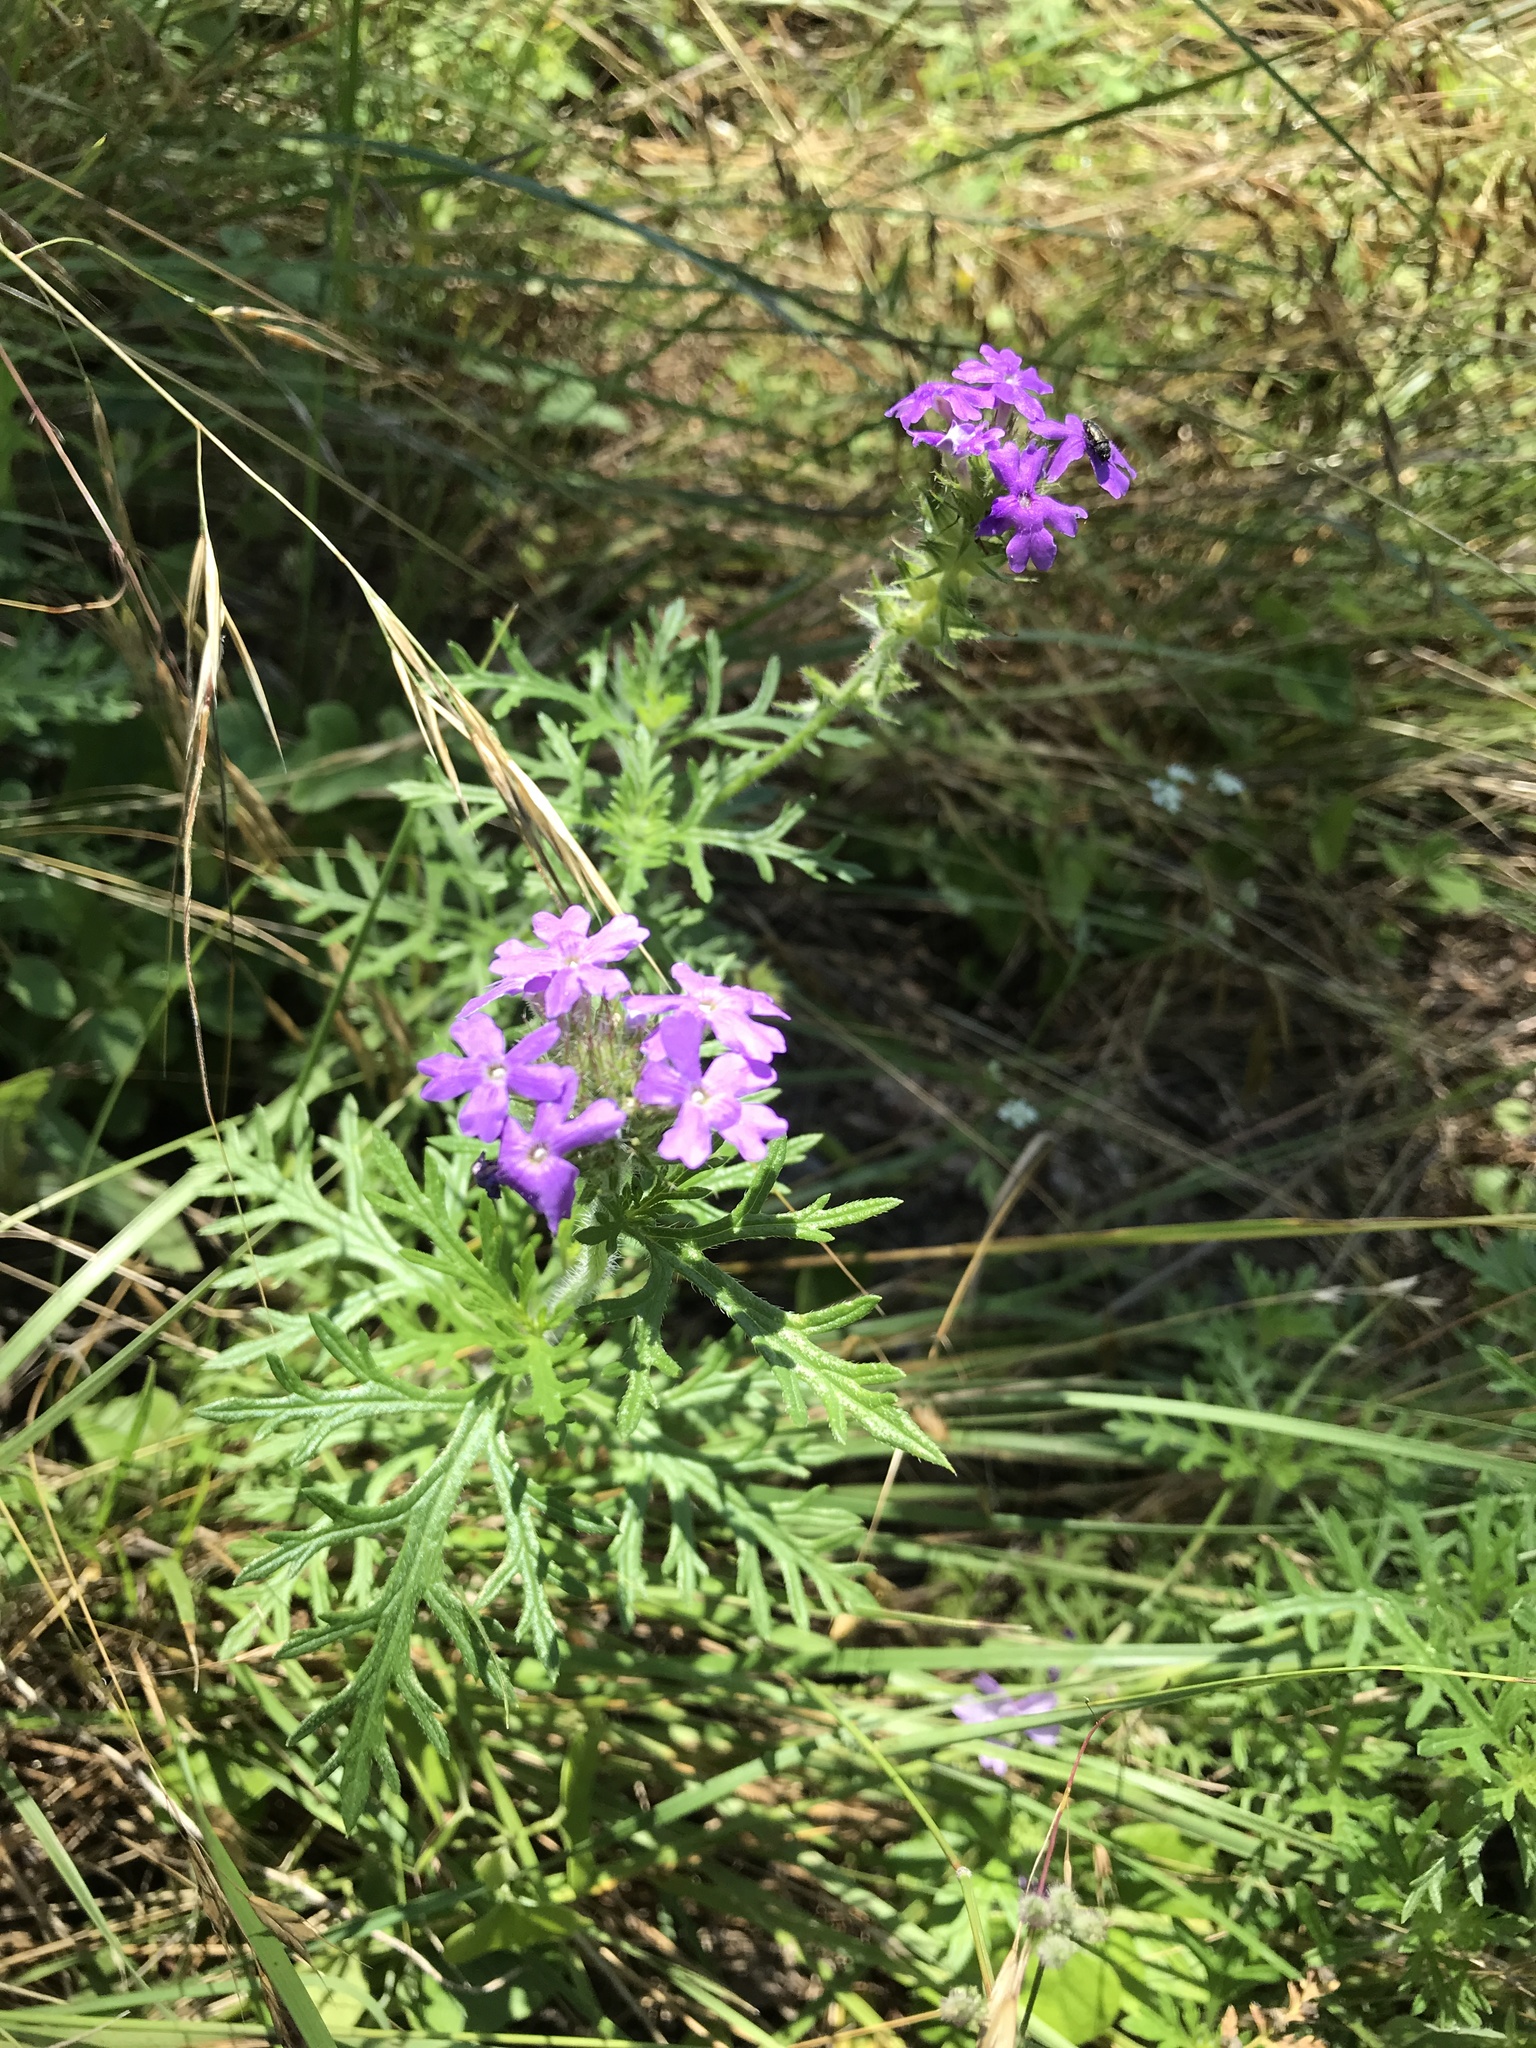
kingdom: Plantae
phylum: Tracheophyta
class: Magnoliopsida
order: Lamiales
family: Verbenaceae
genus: Verbena
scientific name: Verbena bipinnatifida
